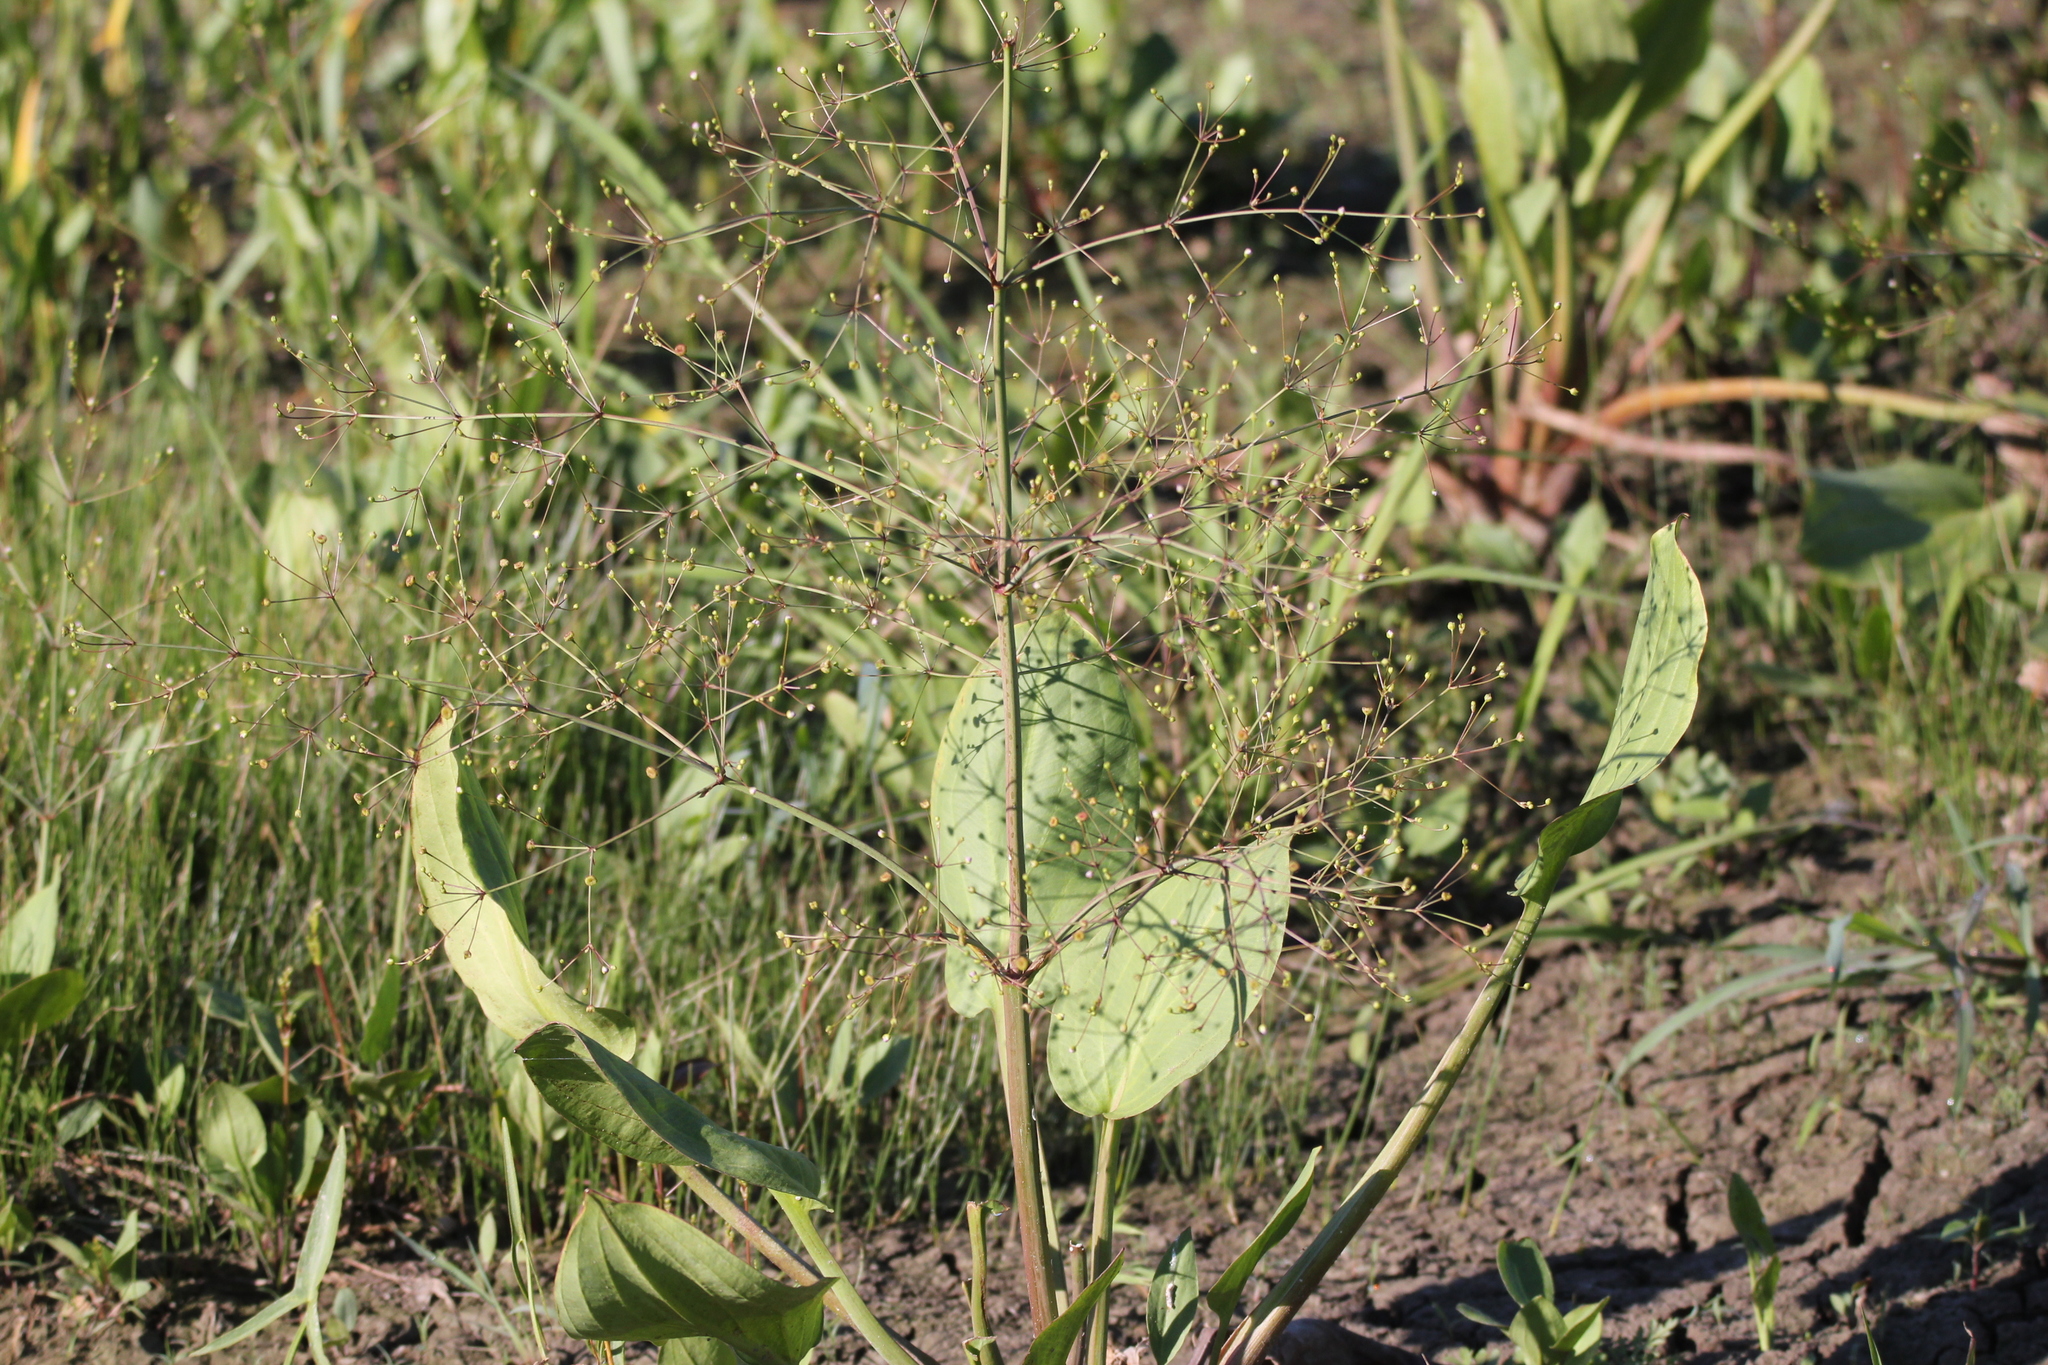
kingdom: Plantae
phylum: Tracheophyta
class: Liliopsida
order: Alismatales
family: Alismataceae
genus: Alisma
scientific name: Alisma subcordatum
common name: Southern water-plantain
